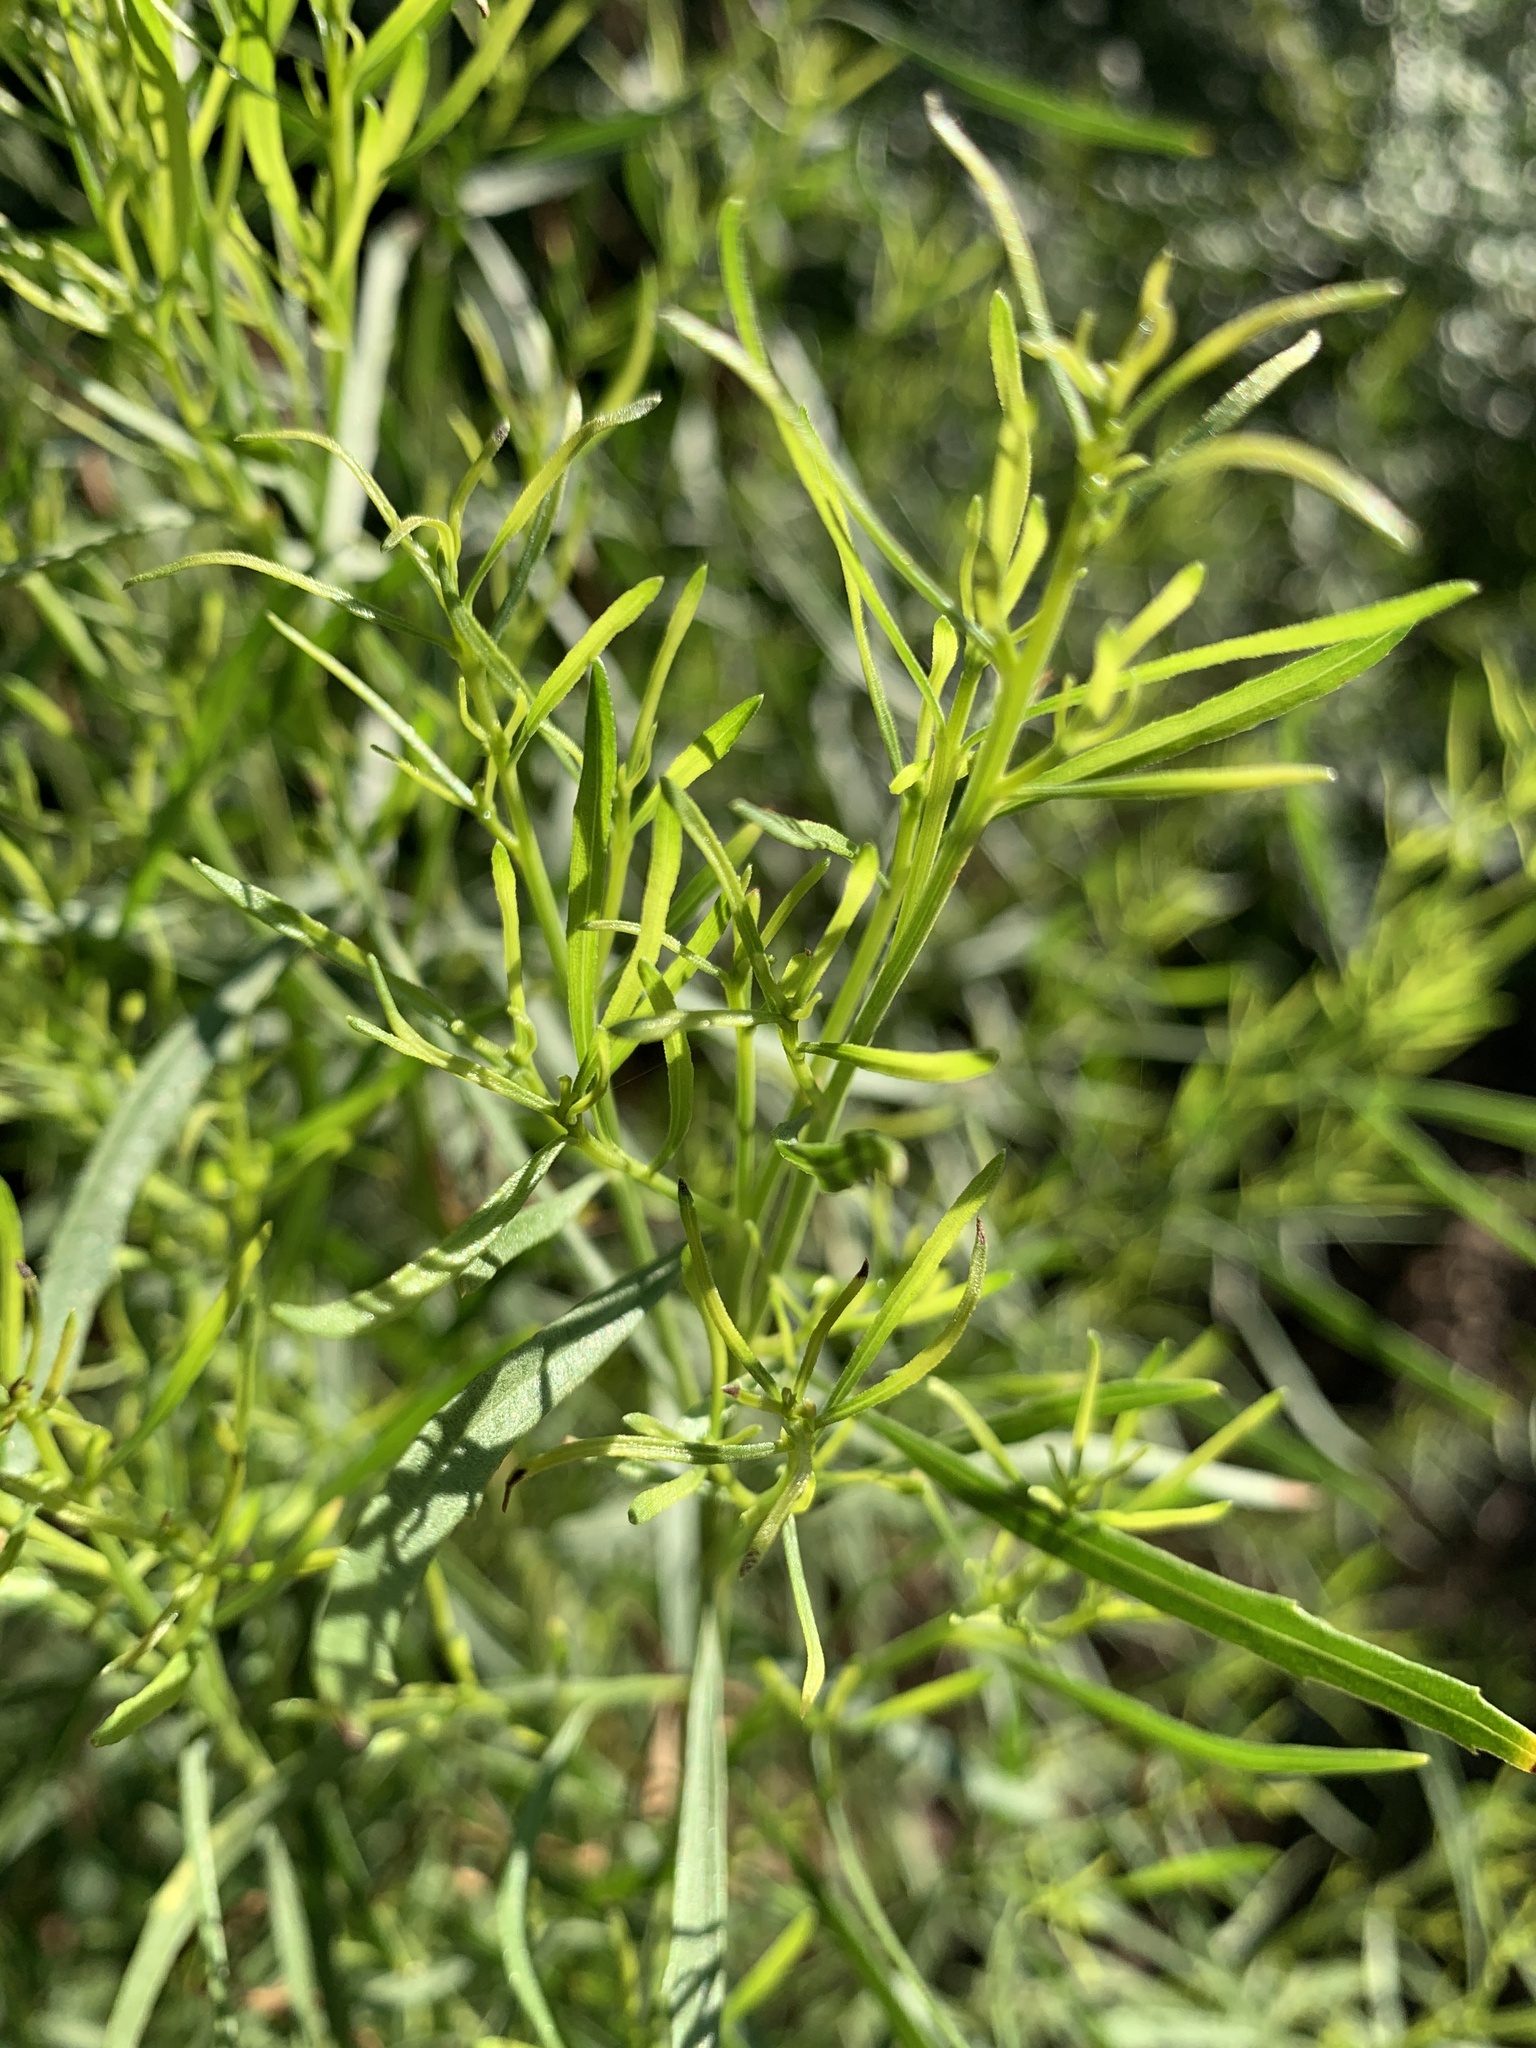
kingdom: Plantae
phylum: Tracheophyta
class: Magnoliopsida
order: Asterales
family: Asteraceae
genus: Baccharis
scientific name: Baccharis neglecta
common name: Roosevelt-weed
